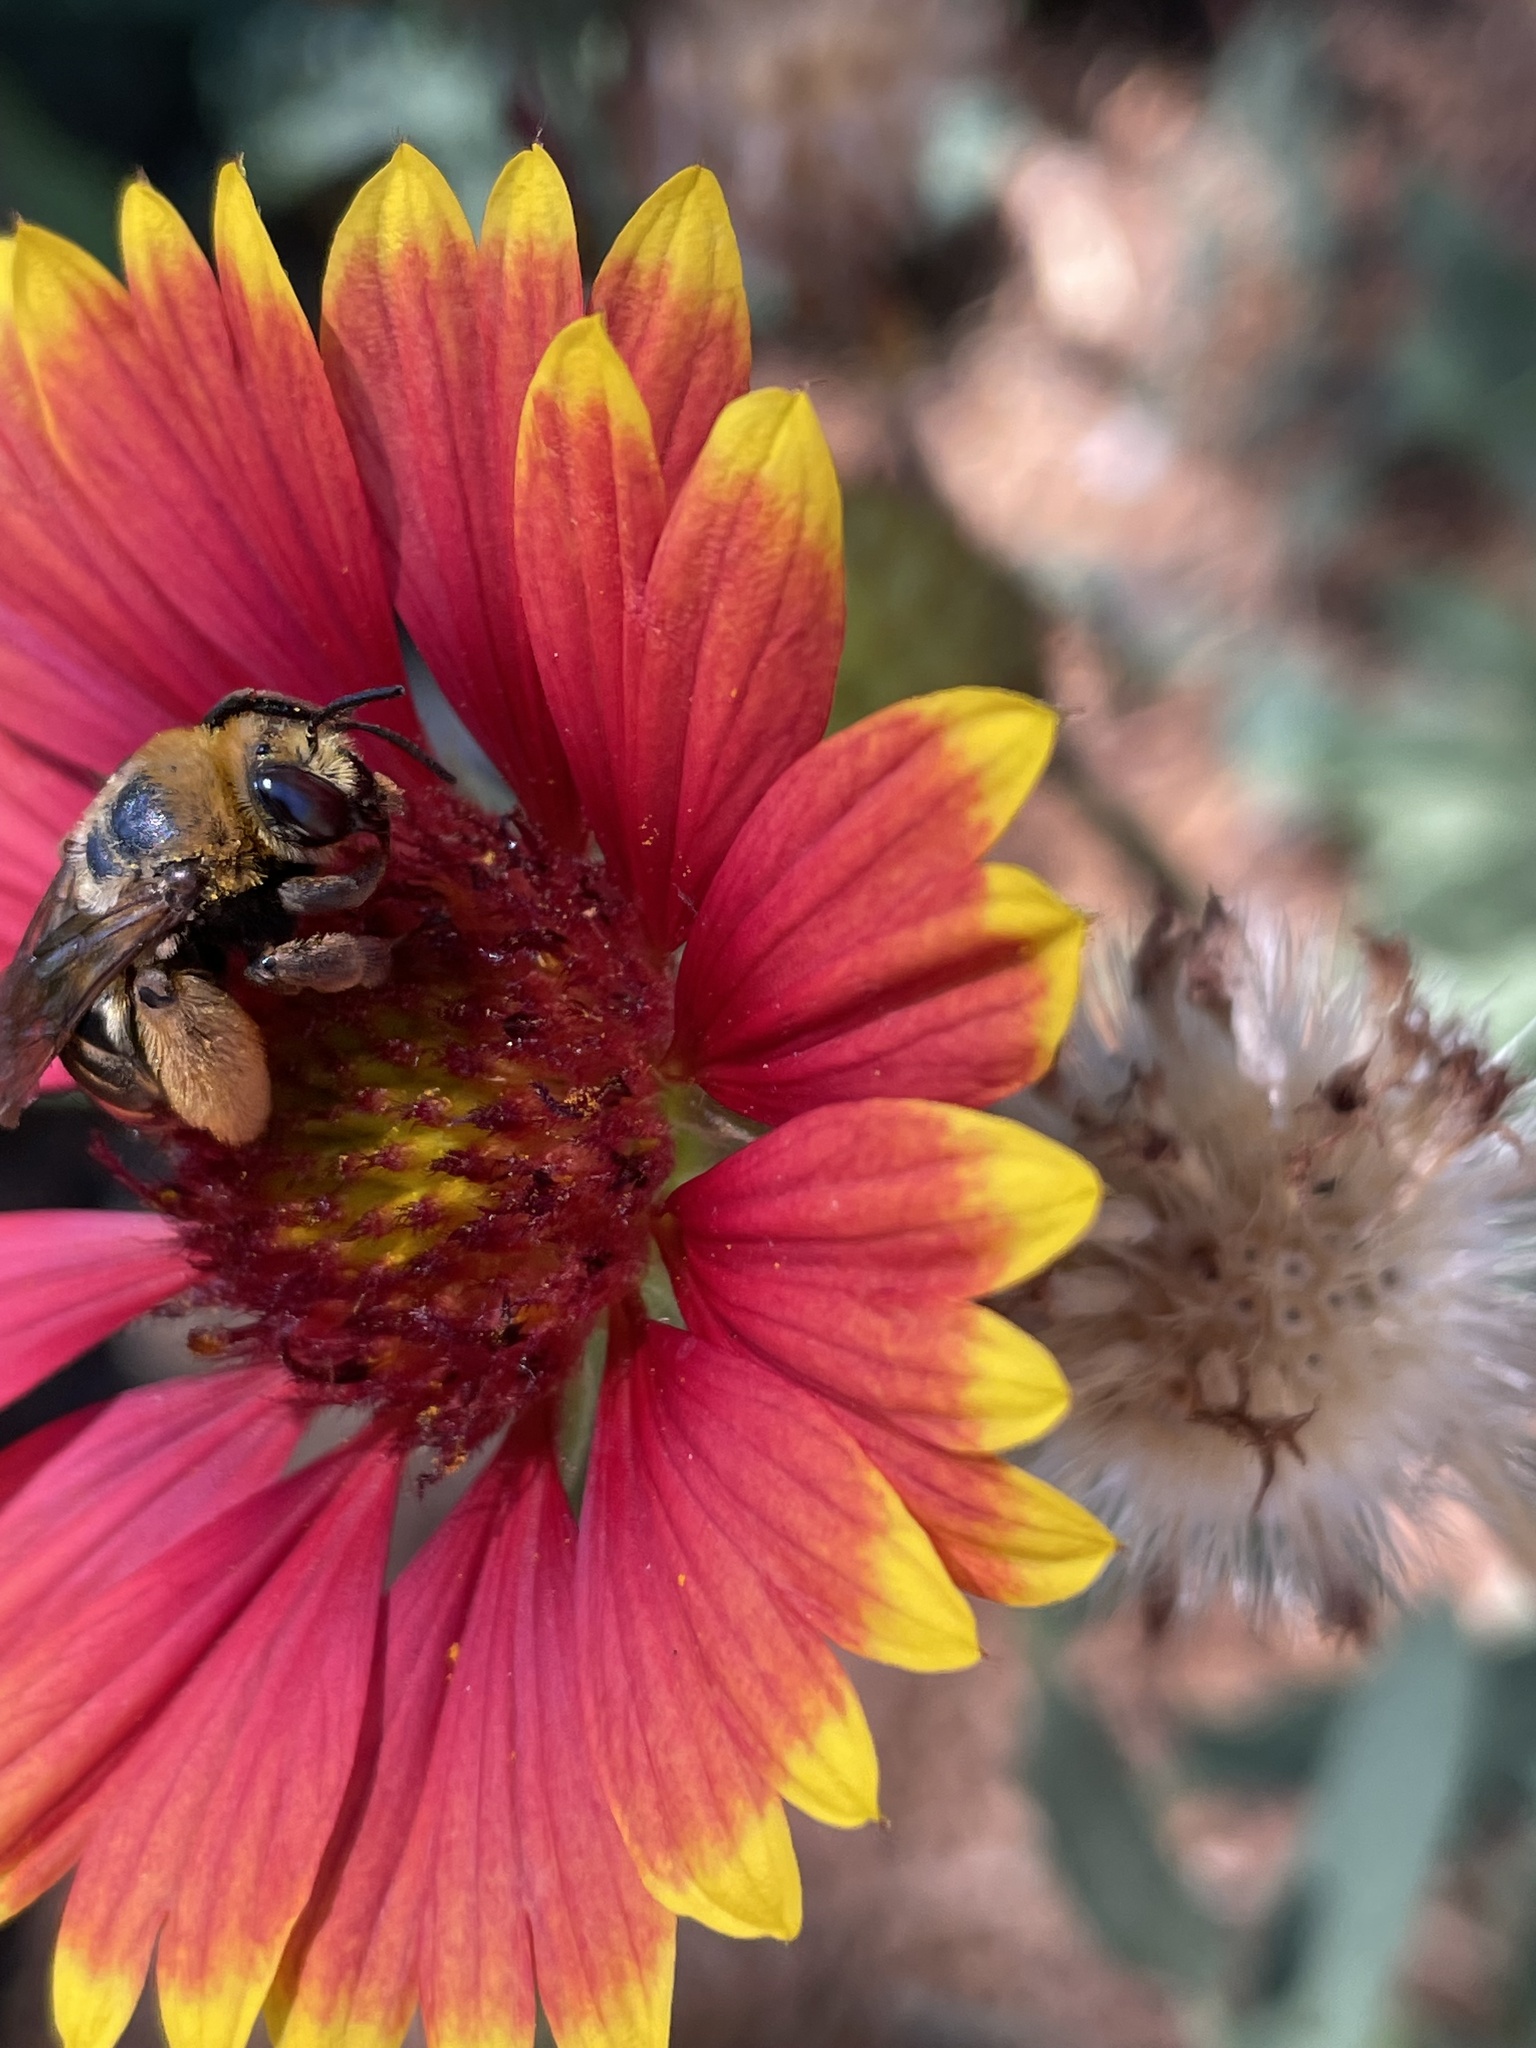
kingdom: Animalia
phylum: Arthropoda
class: Insecta
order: Hymenoptera
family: Apidae
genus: Svastra
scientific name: Svastra obliqua
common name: Oblique longhorn
